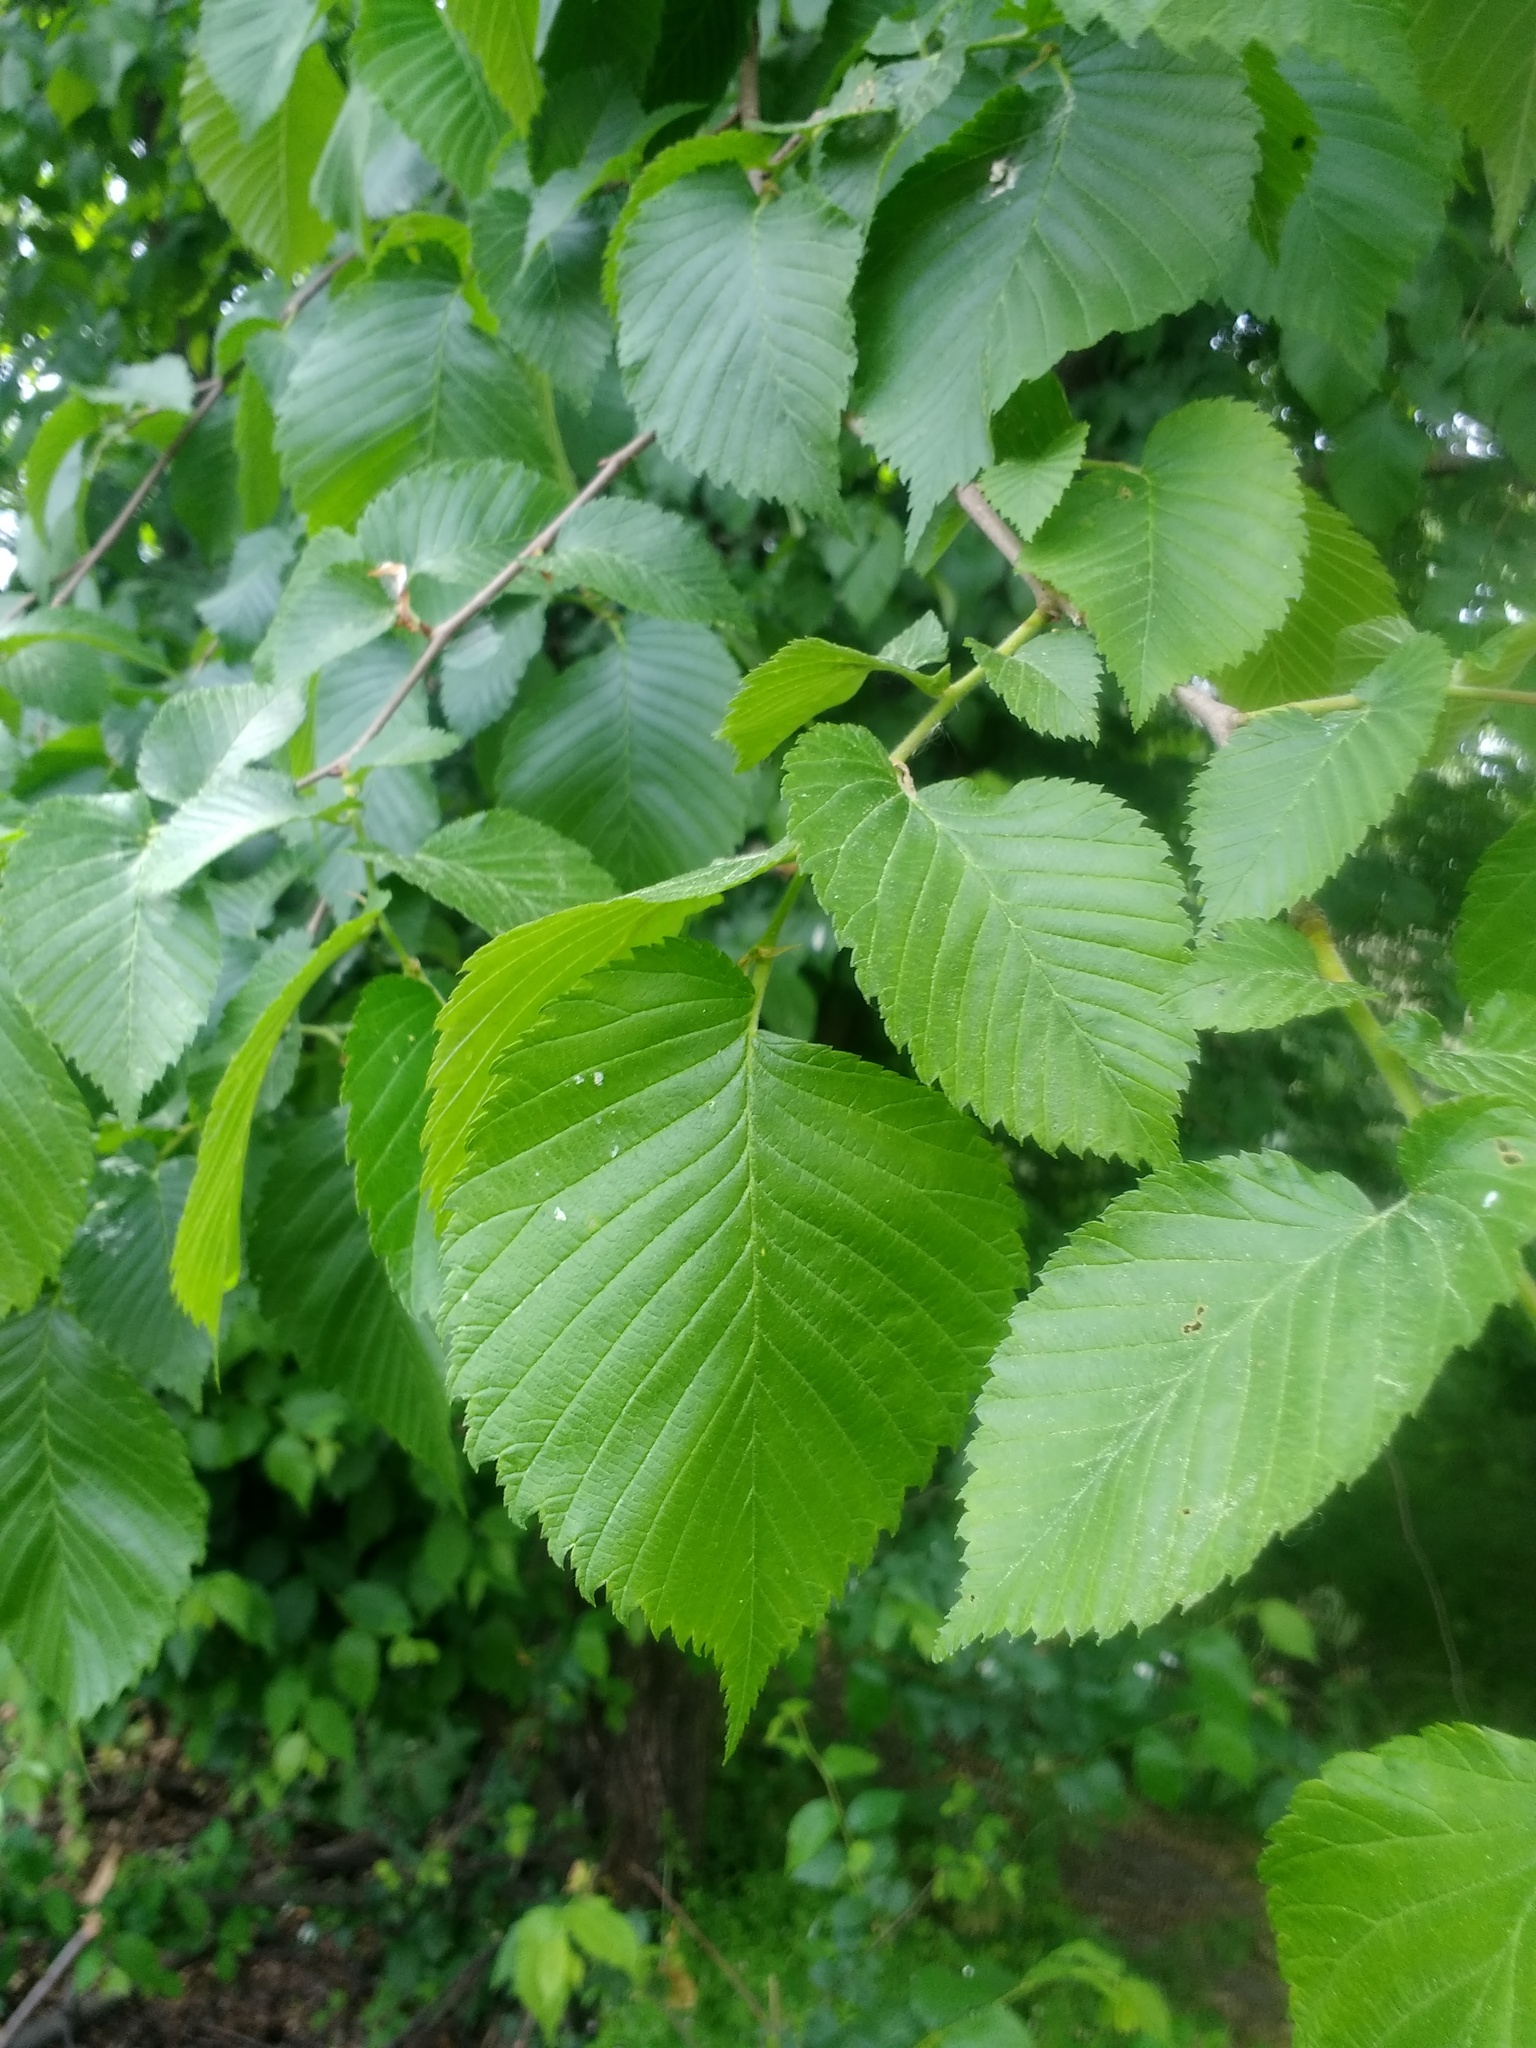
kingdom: Plantae
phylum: Tracheophyta
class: Magnoliopsida
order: Rosales
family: Ulmaceae
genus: Ulmus
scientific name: Ulmus laevis
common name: European white-elm
